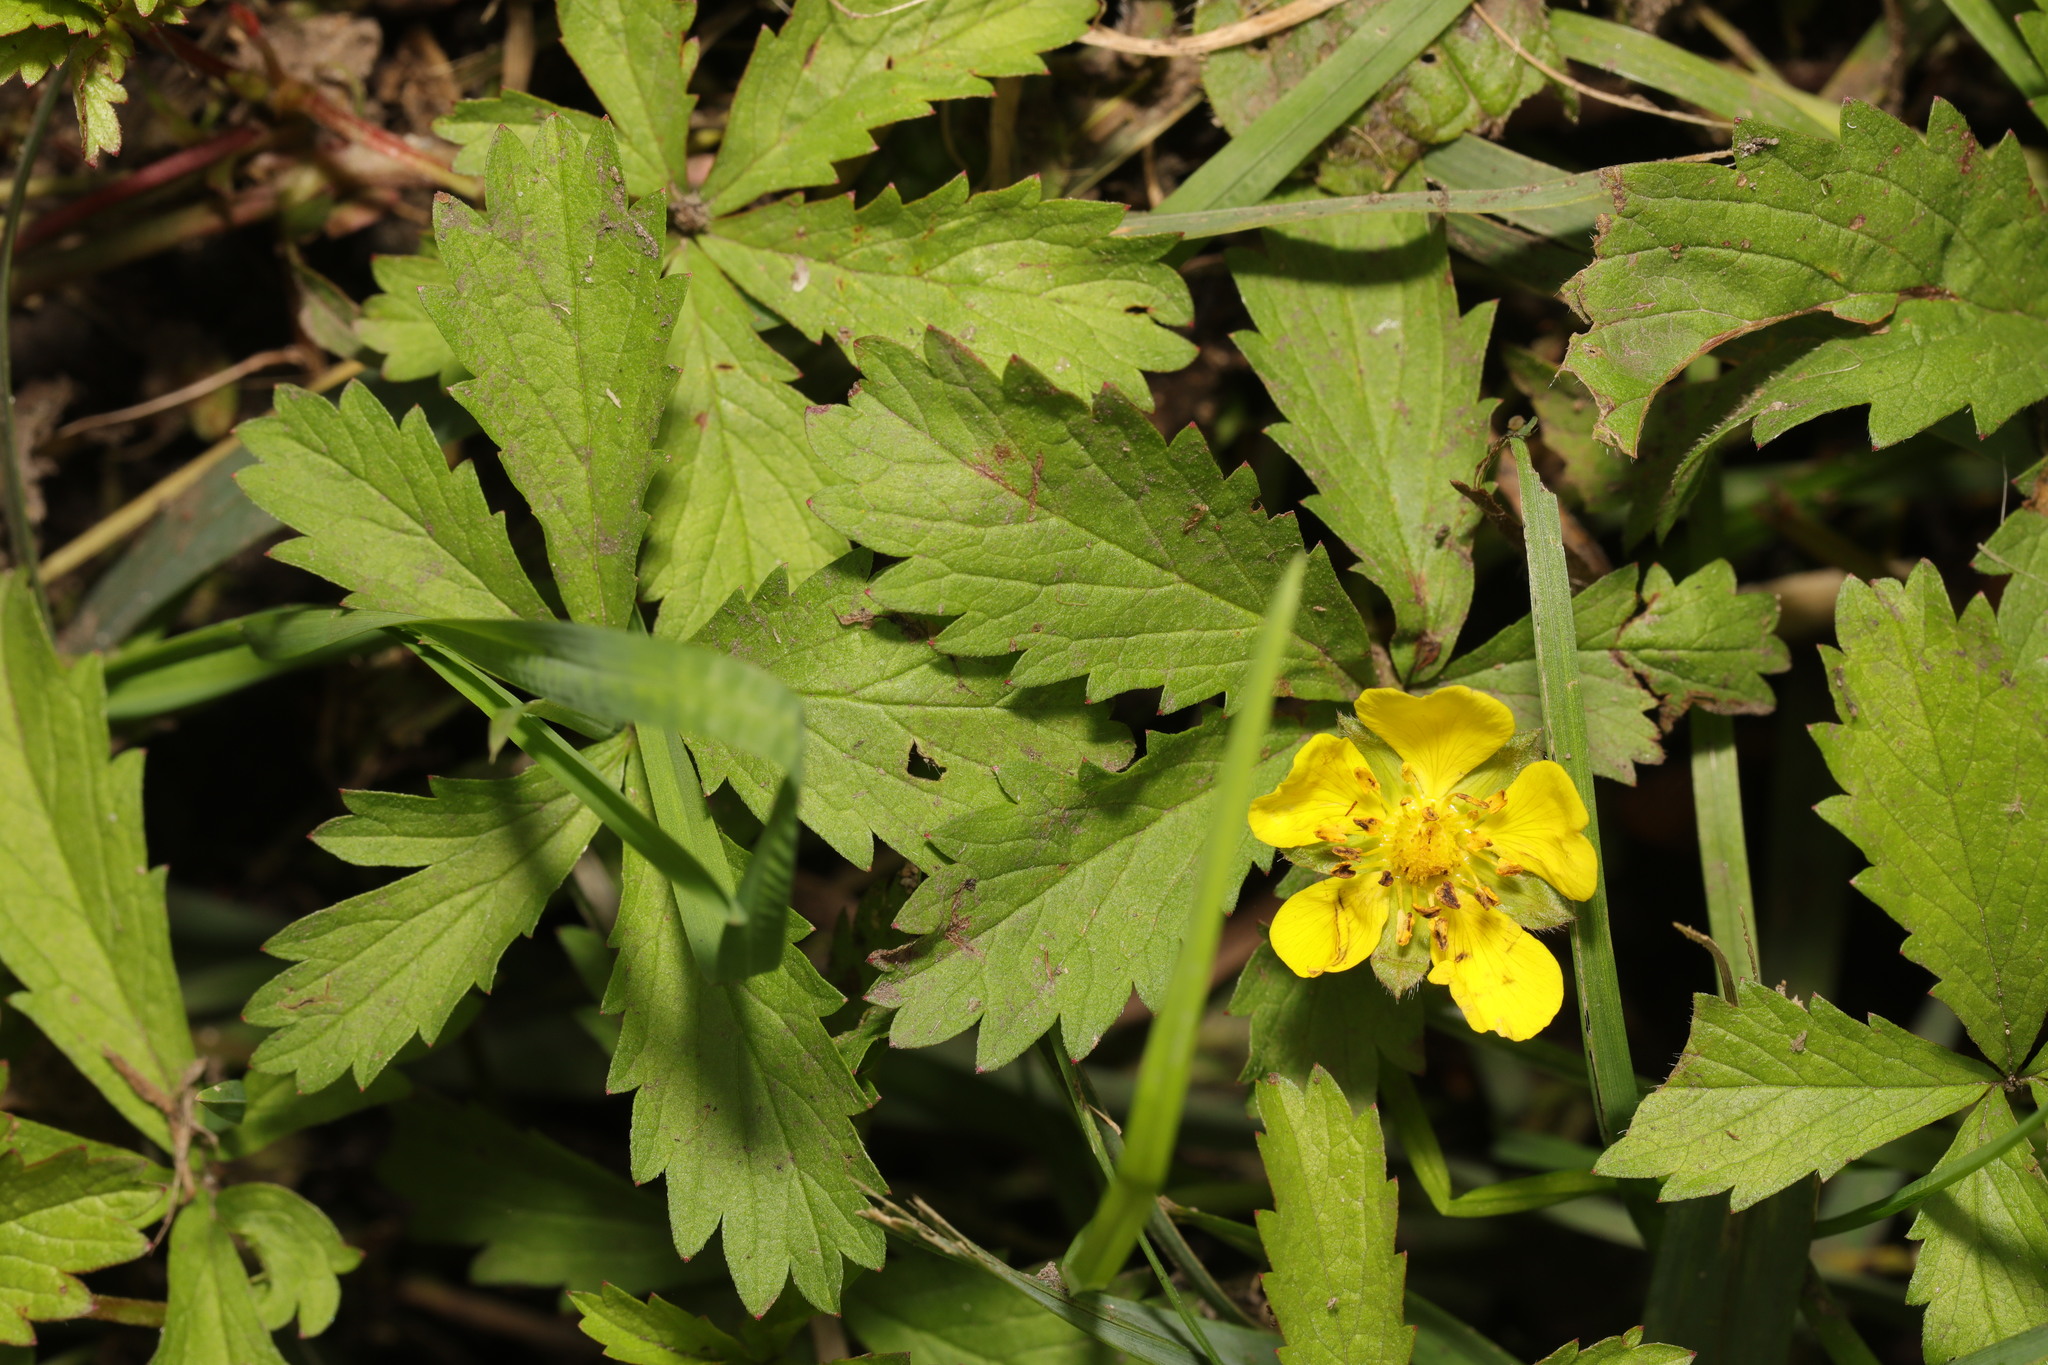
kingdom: Plantae
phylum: Tracheophyta
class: Magnoliopsida
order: Rosales
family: Rosaceae
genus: Potentilla
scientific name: Potentilla reptans
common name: Creeping cinquefoil
